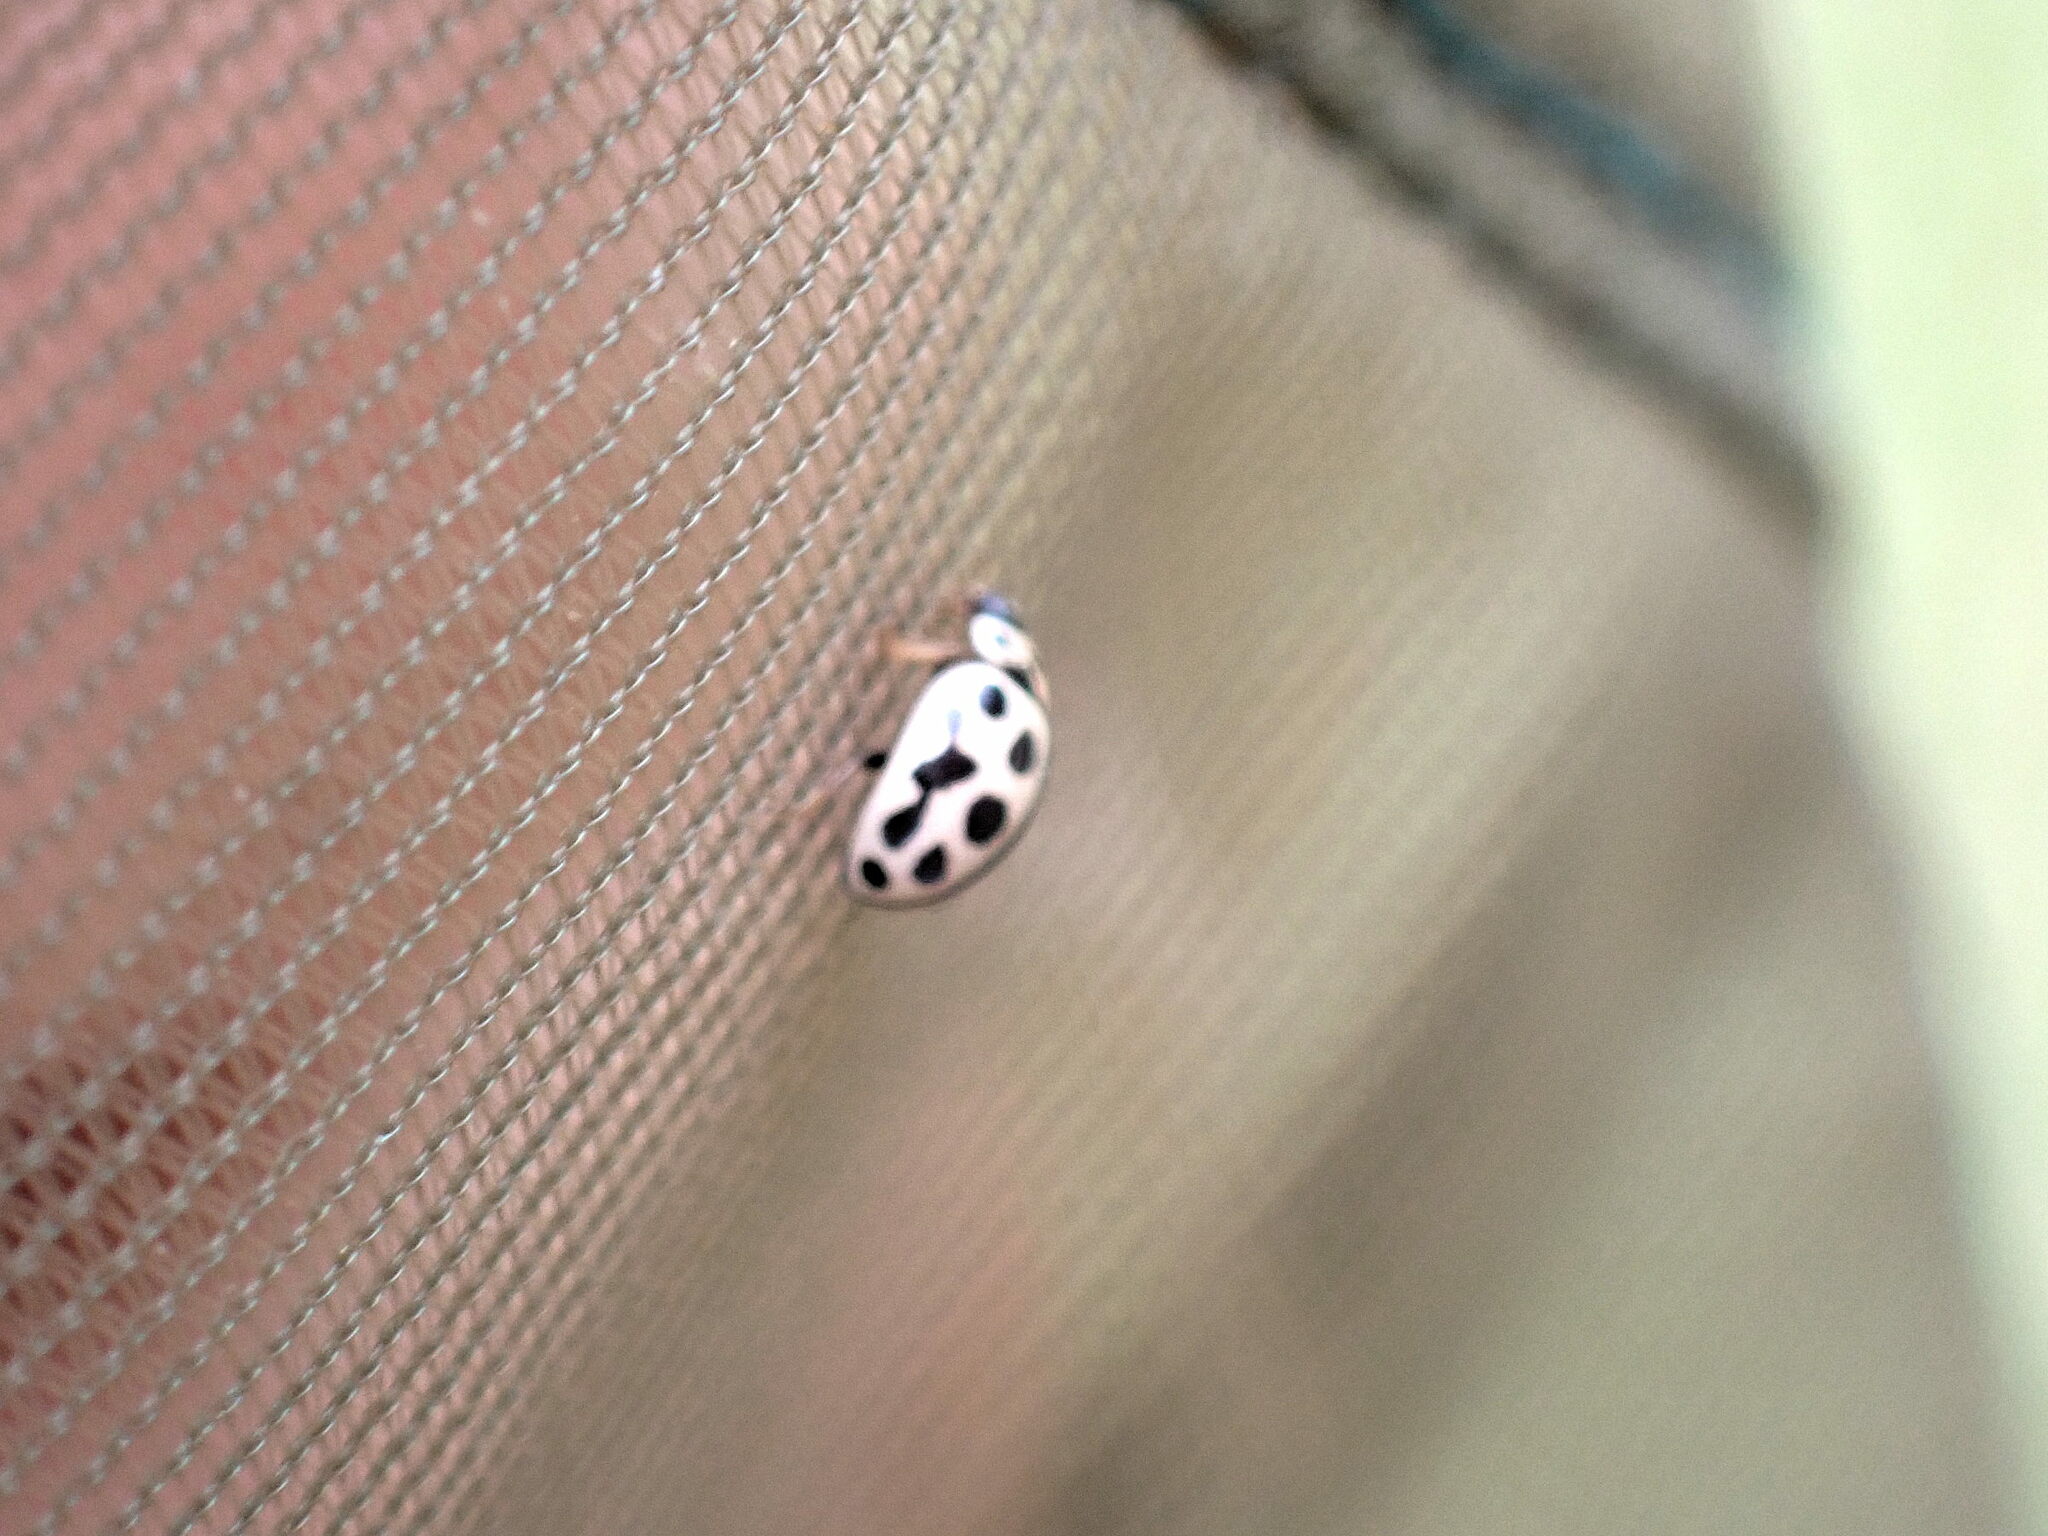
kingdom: Animalia
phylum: Arthropoda
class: Insecta
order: Coleoptera
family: Coccinellidae
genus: Tytthaspis
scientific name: Tytthaspis sedecimpunctata
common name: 16-spot ladybird
